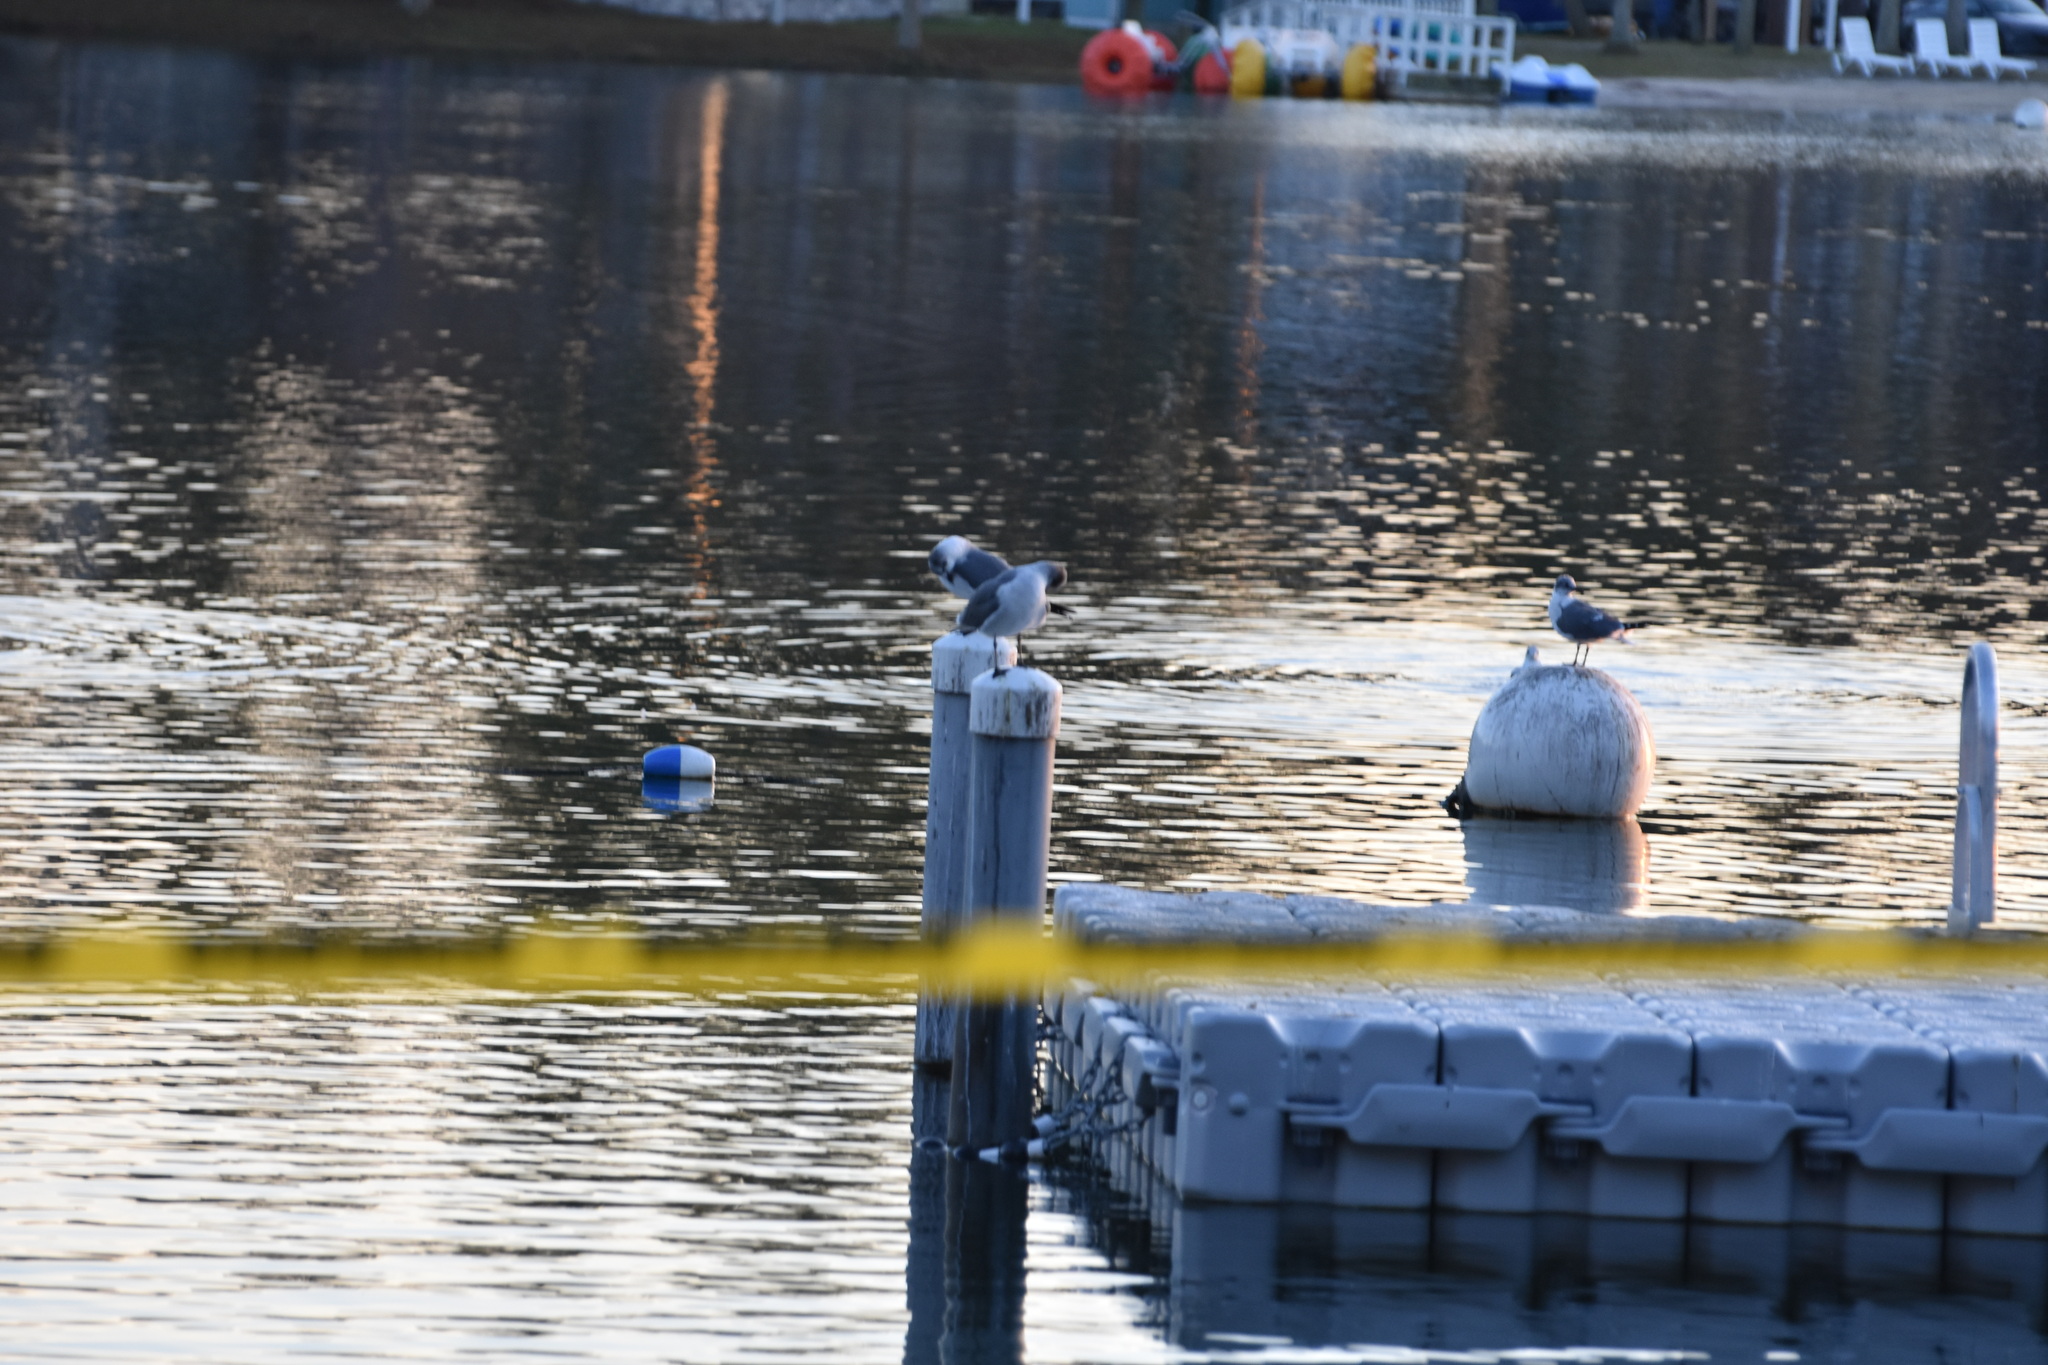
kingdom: Animalia
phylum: Chordata
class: Aves
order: Charadriiformes
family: Laridae
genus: Leucophaeus
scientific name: Leucophaeus atricilla
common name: Laughing gull
